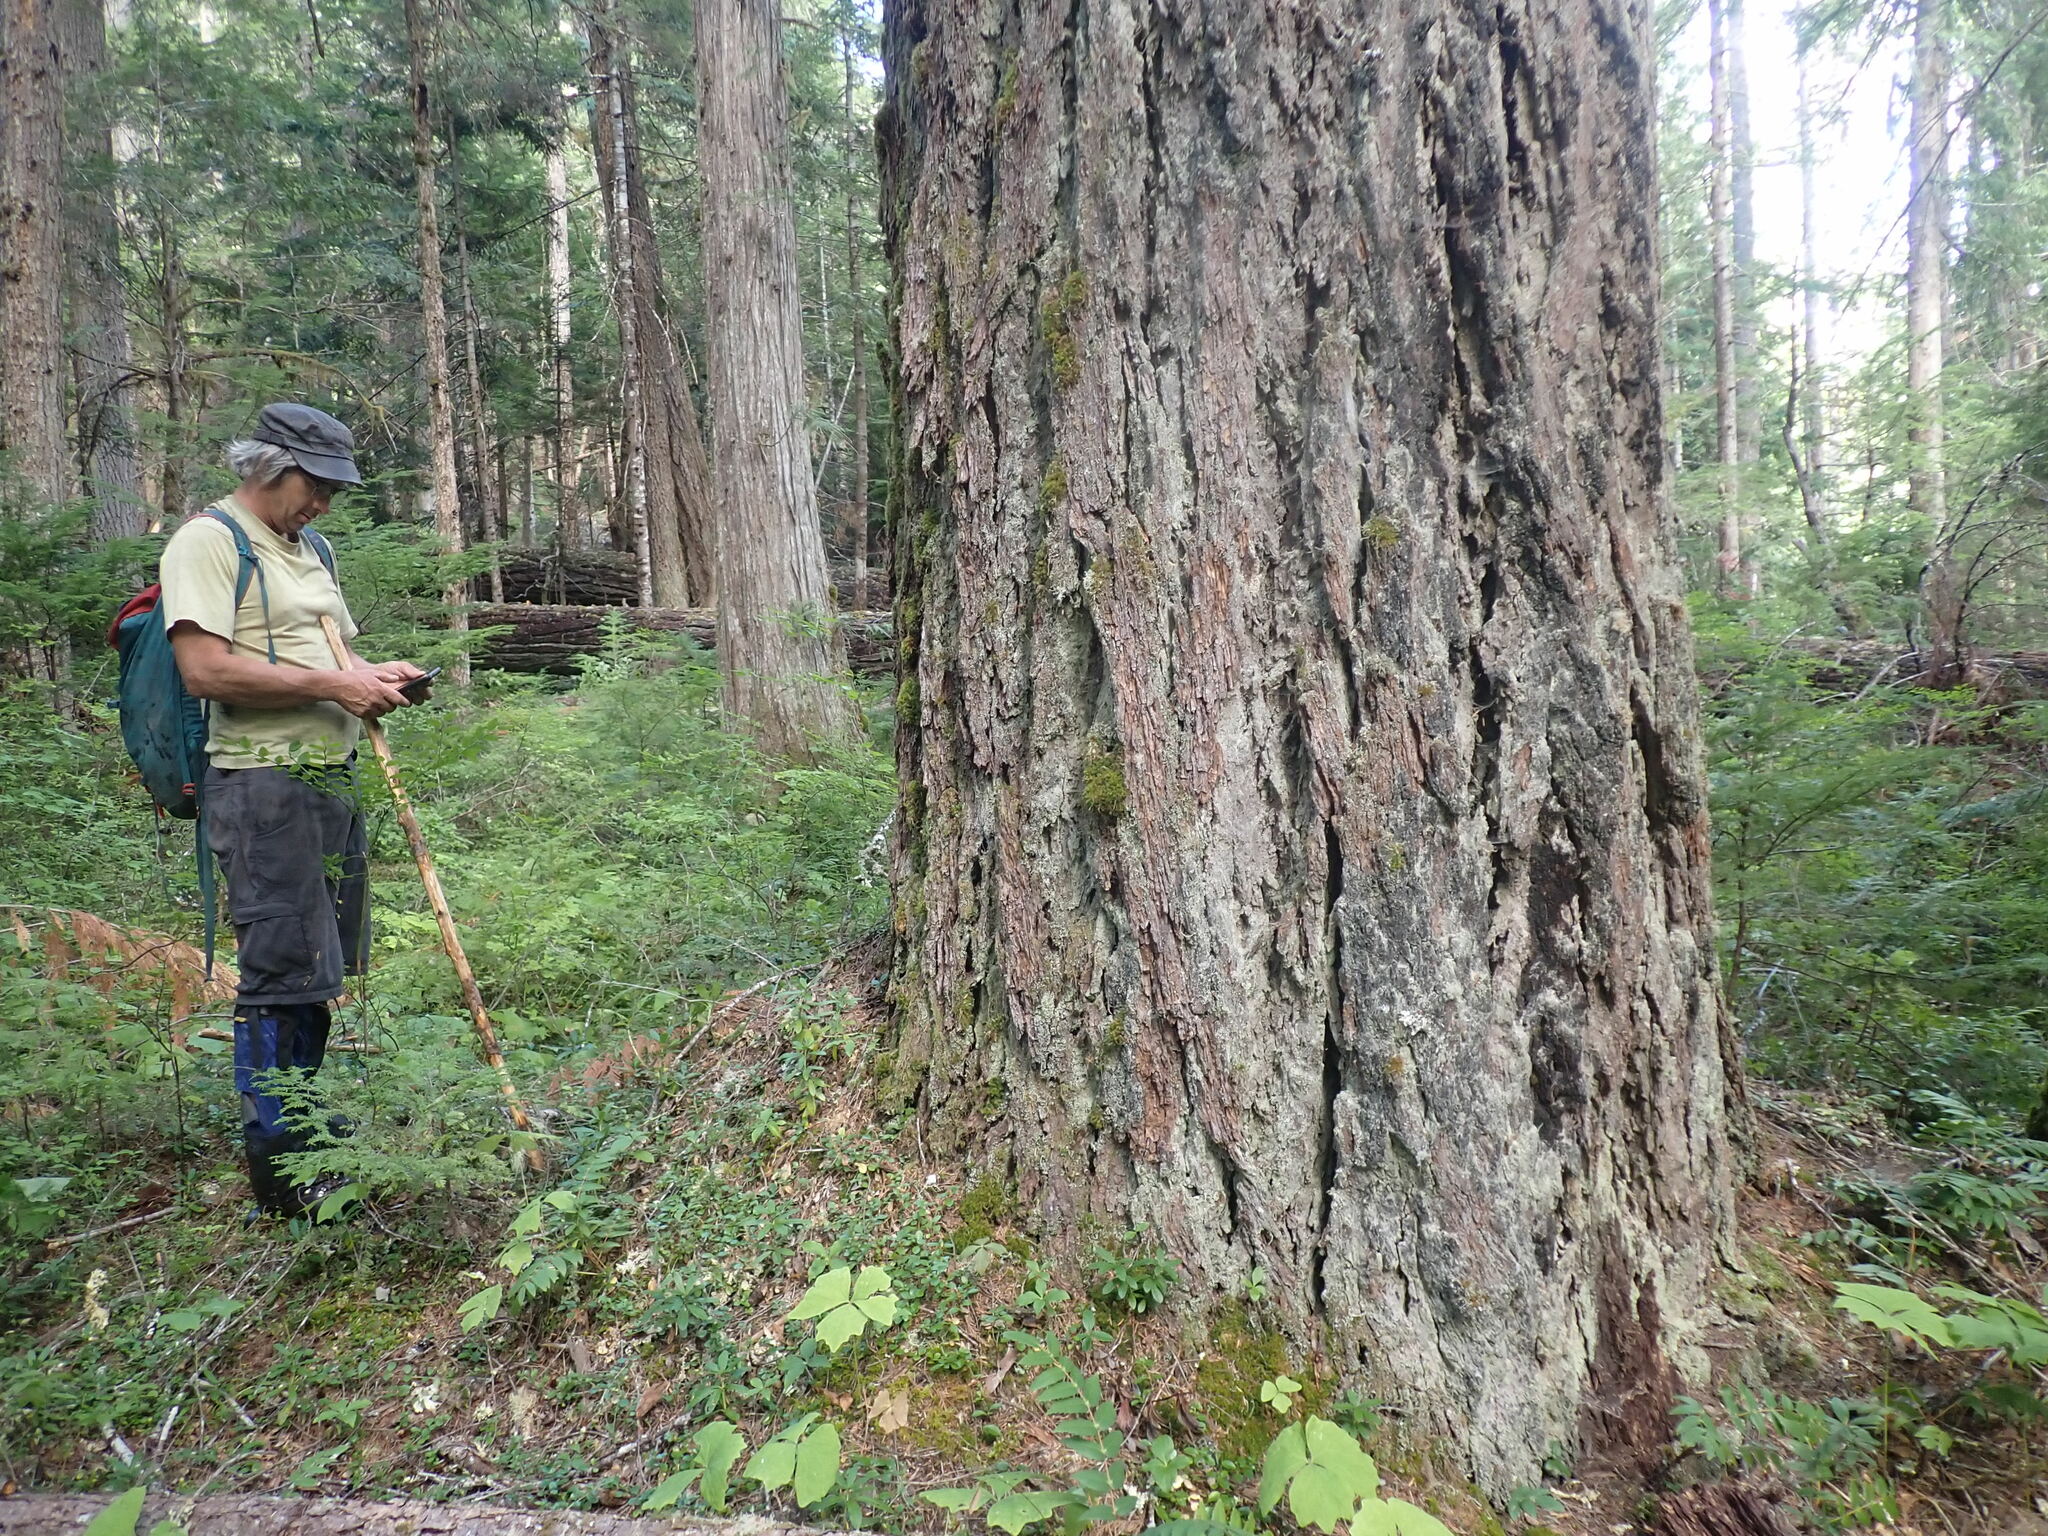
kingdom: Plantae
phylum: Tracheophyta
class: Pinopsida
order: Pinales
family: Pinaceae
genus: Pseudotsuga
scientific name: Pseudotsuga menziesii
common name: Douglas fir
